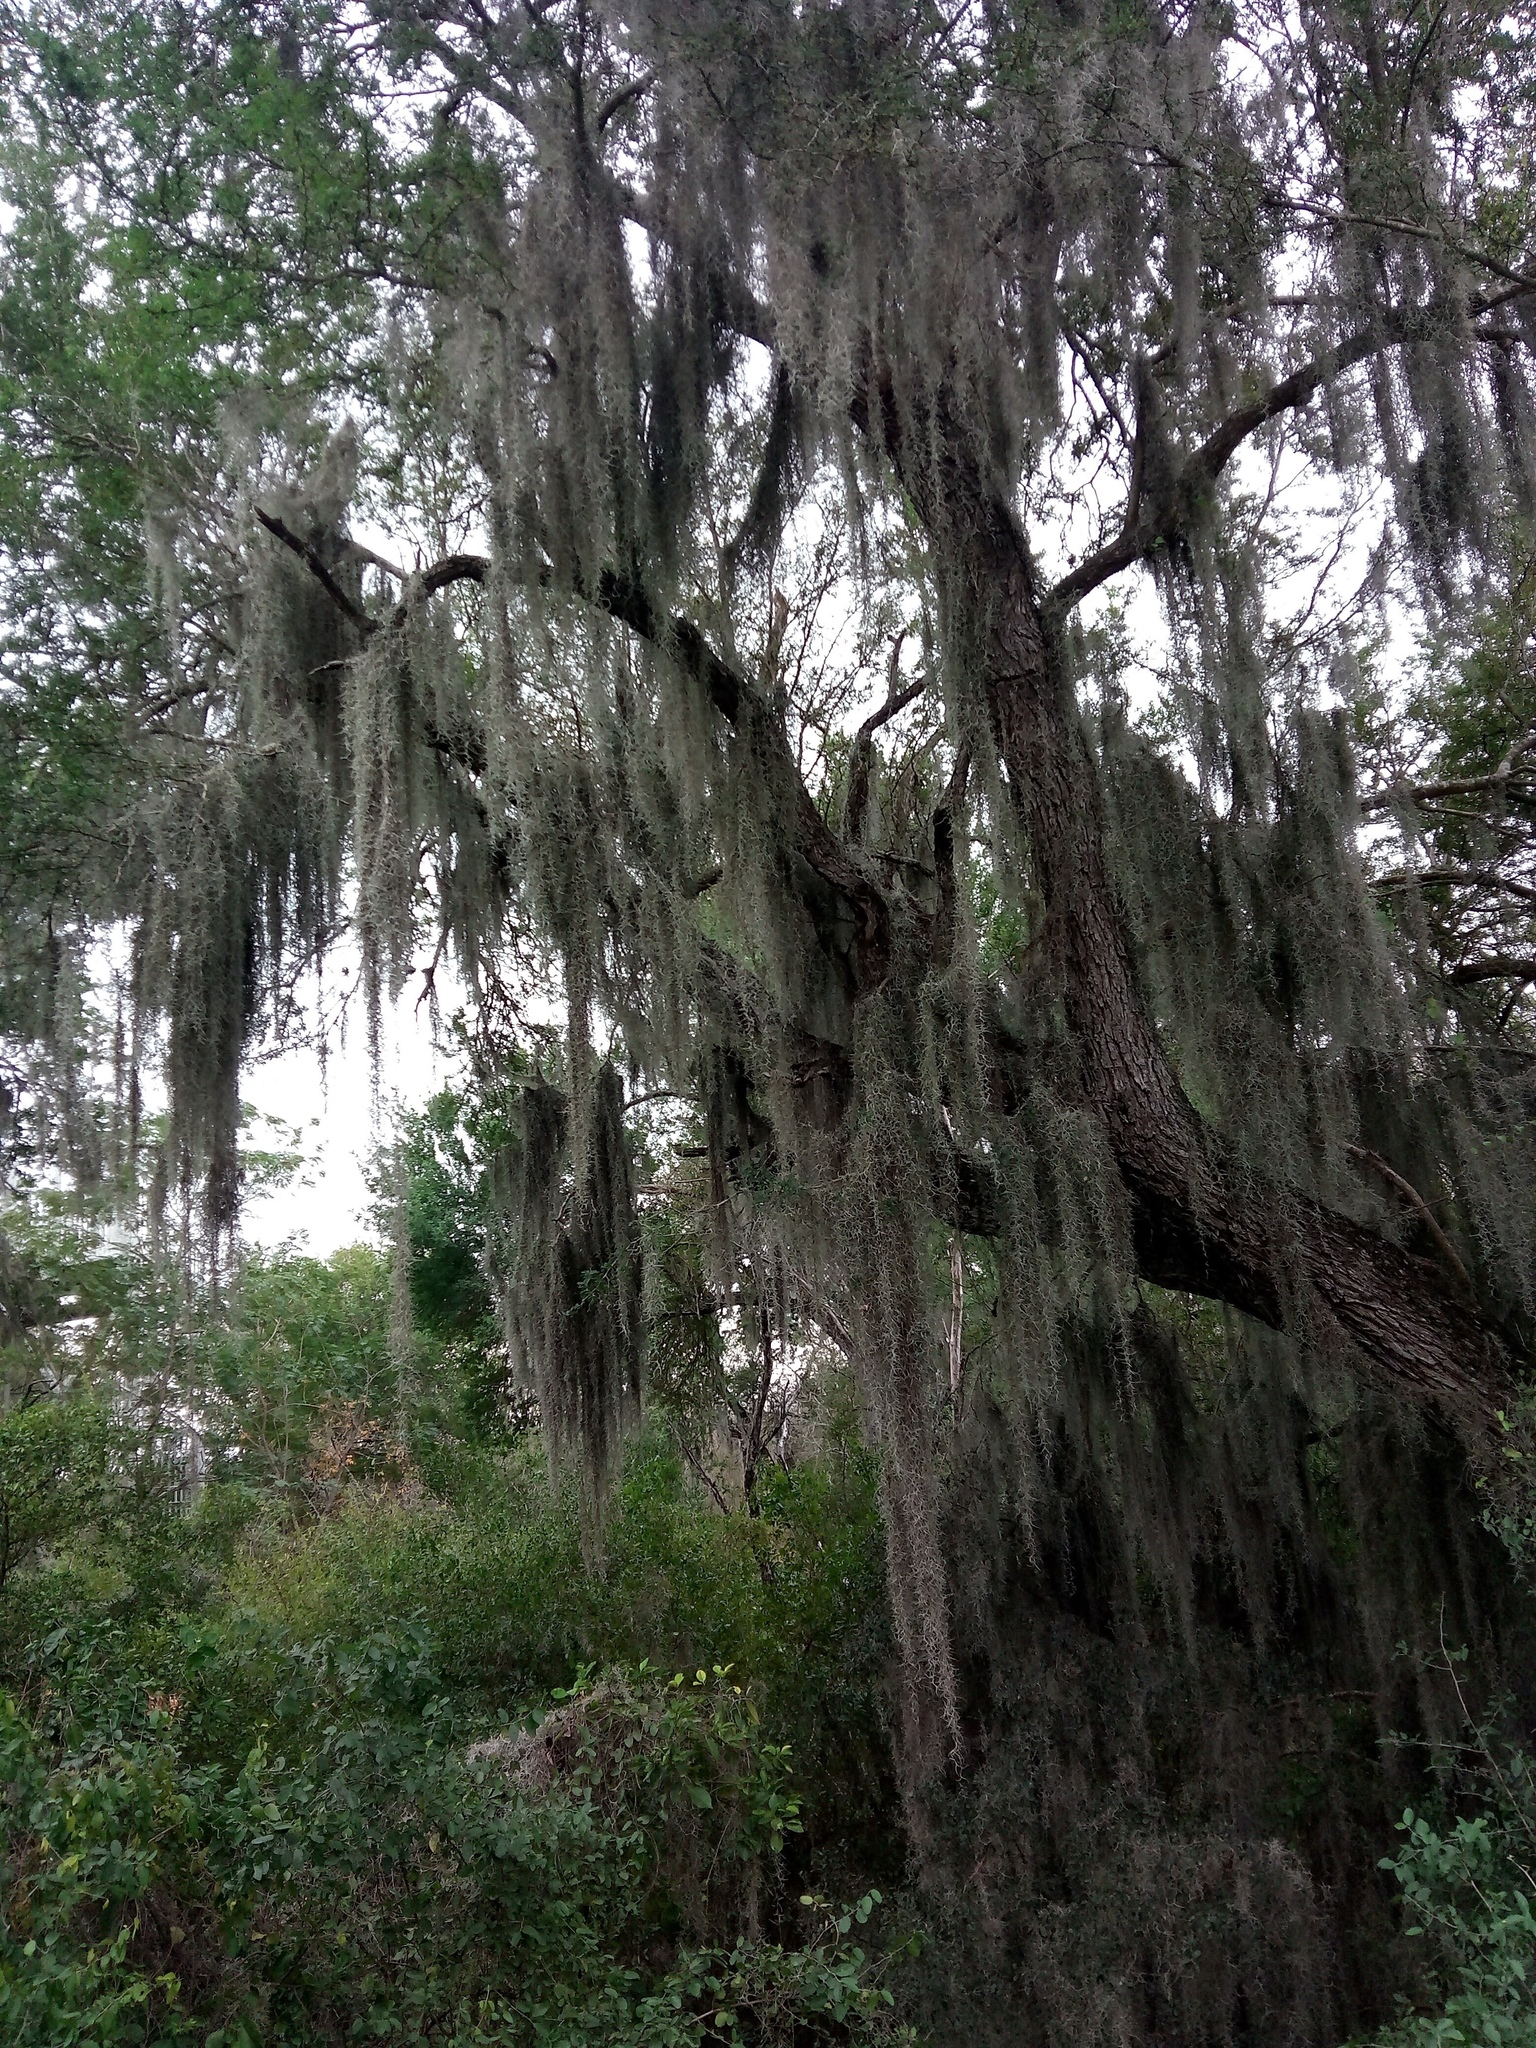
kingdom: Plantae
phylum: Tracheophyta
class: Liliopsida
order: Poales
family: Bromeliaceae
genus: Tillandsia
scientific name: Tillandsia usneoides
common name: Spanish moss
